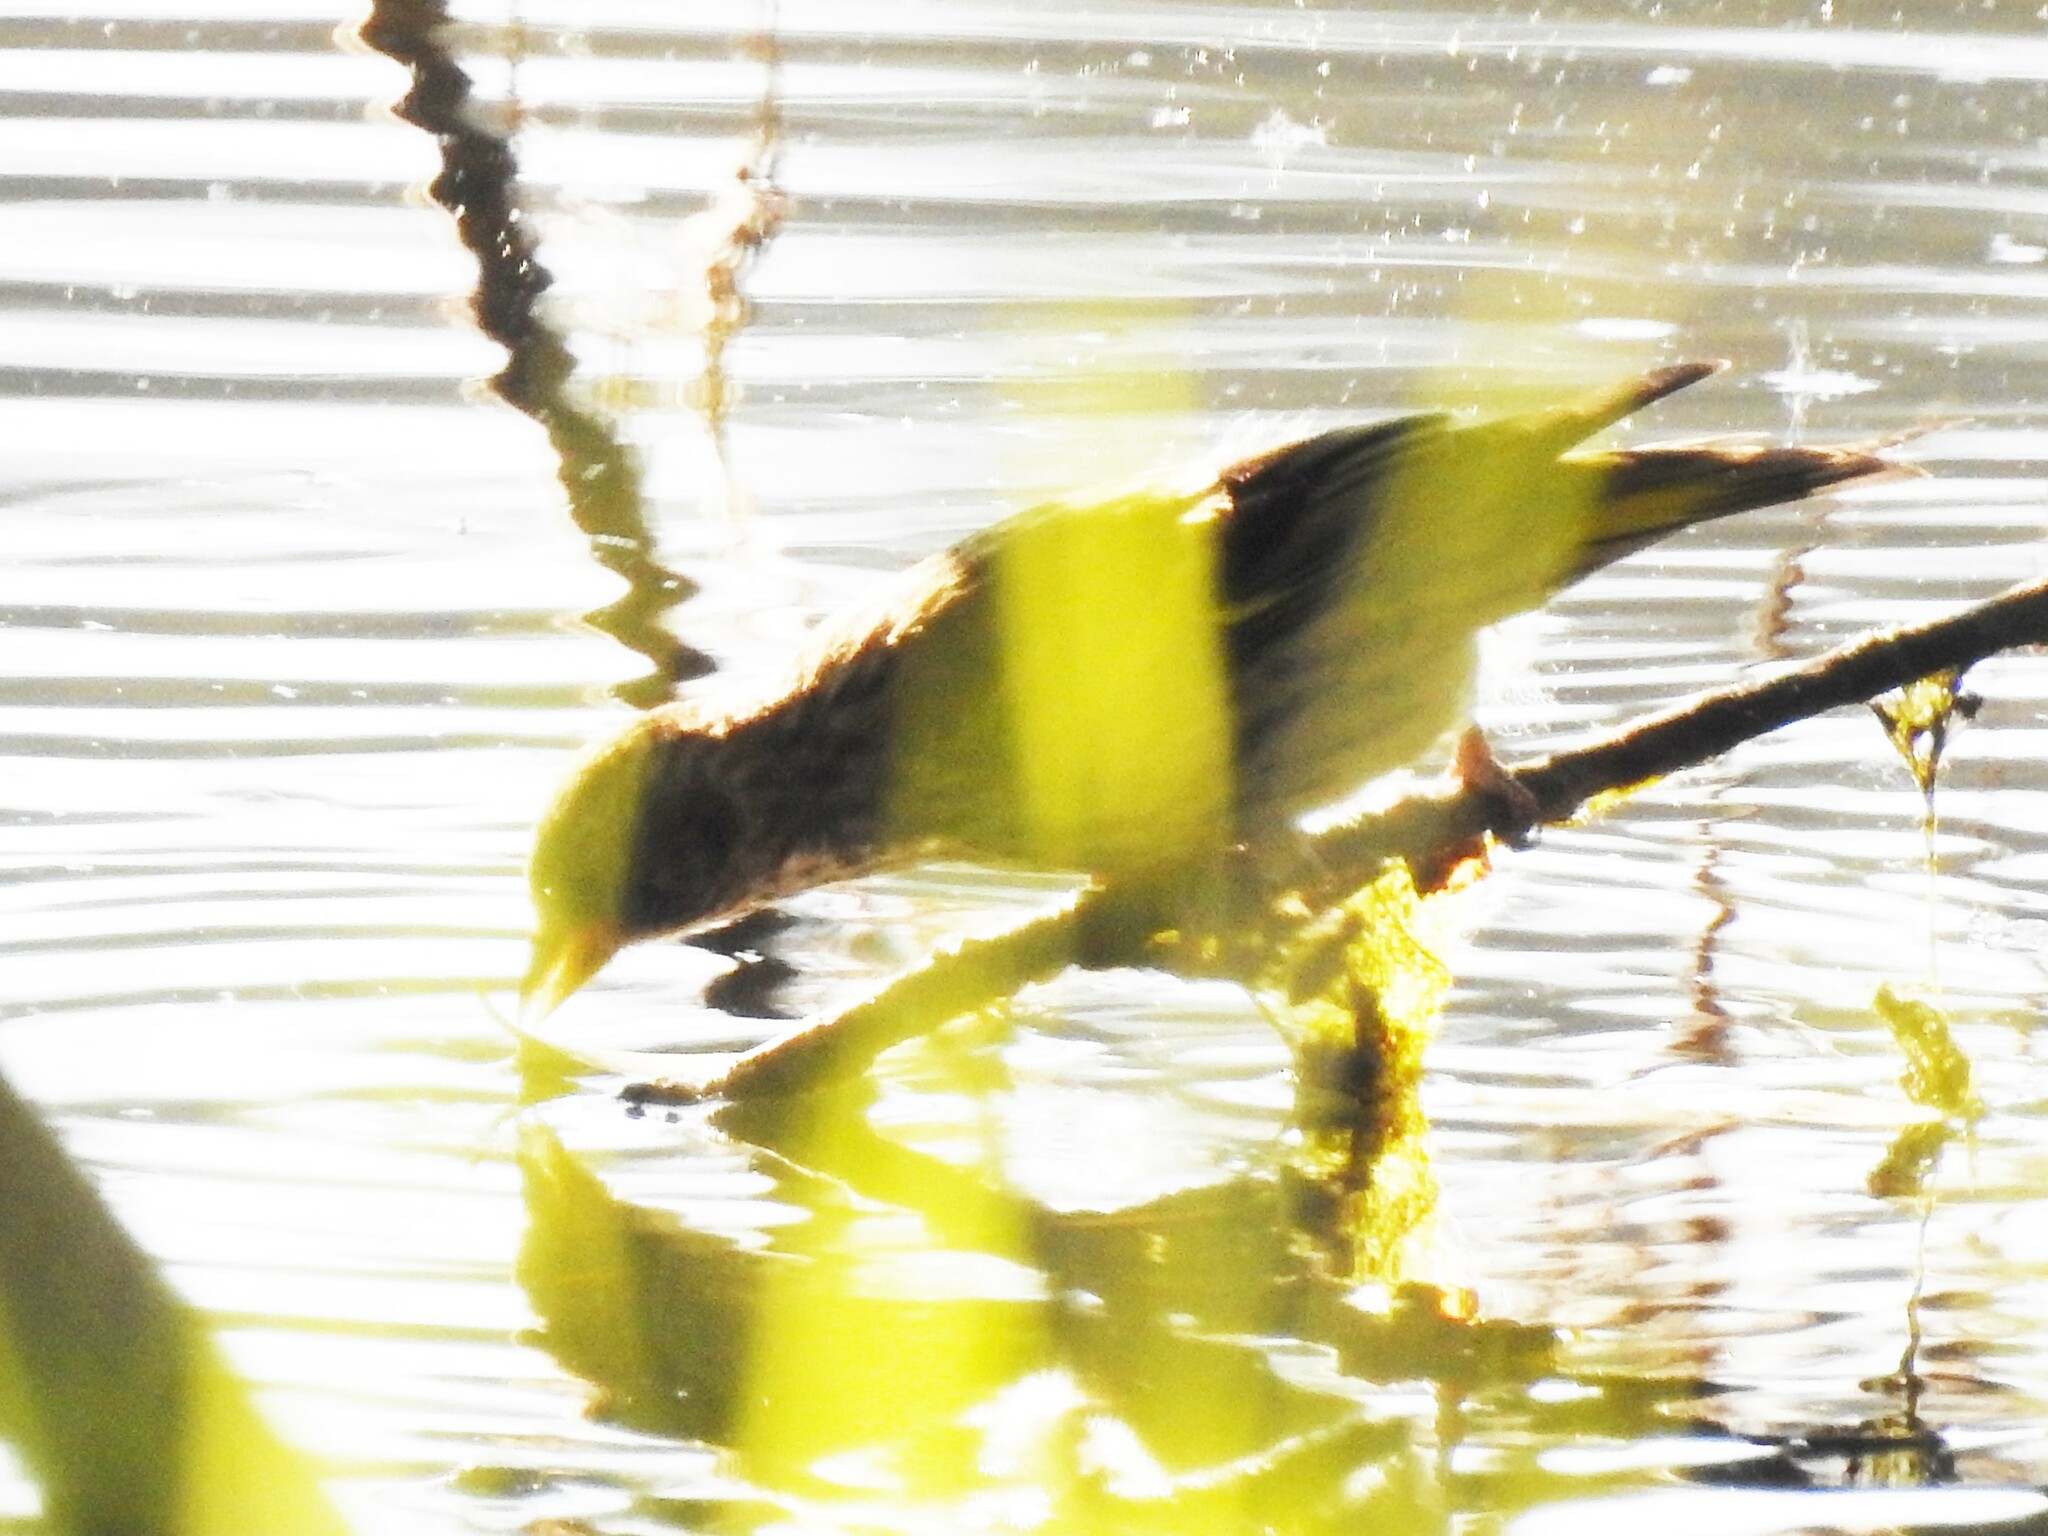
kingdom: Animalia
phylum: Chordata
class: Aves
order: Passeriformes
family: Fringillidae
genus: Spinus
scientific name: Spinus spinus
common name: Eurasian siskin
